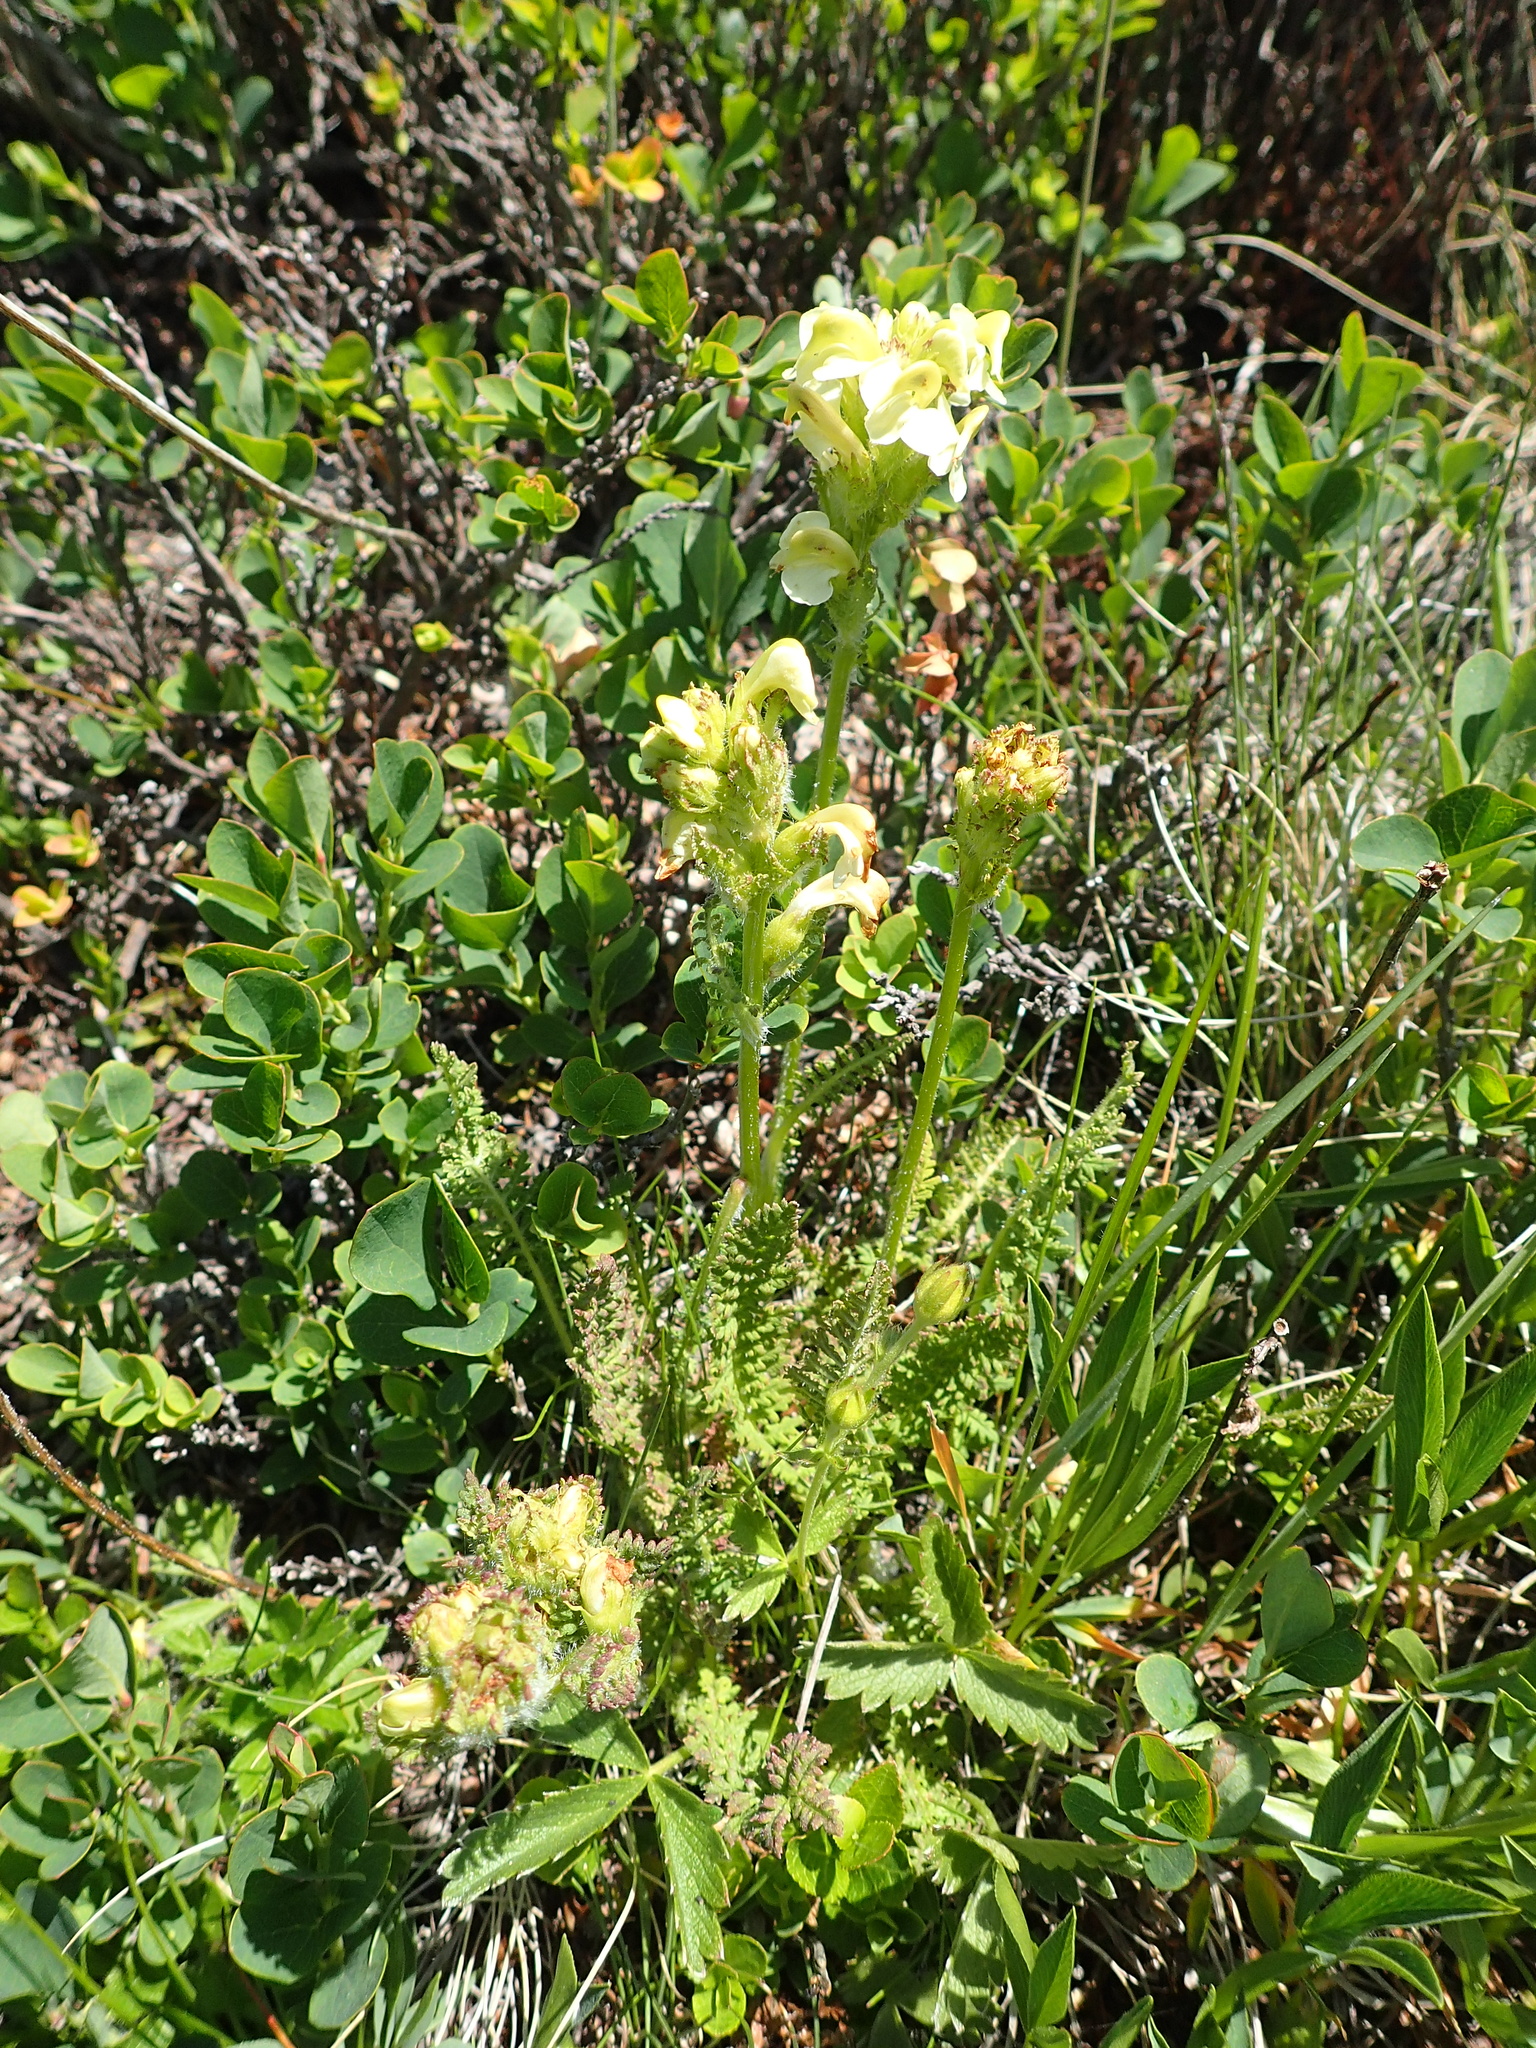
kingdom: Plantae
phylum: Tracheophyta
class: Magnoliopsida
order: Lamiales
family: Orobanchaceae
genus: Pedicularis
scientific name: Pedicularis tuberosa
